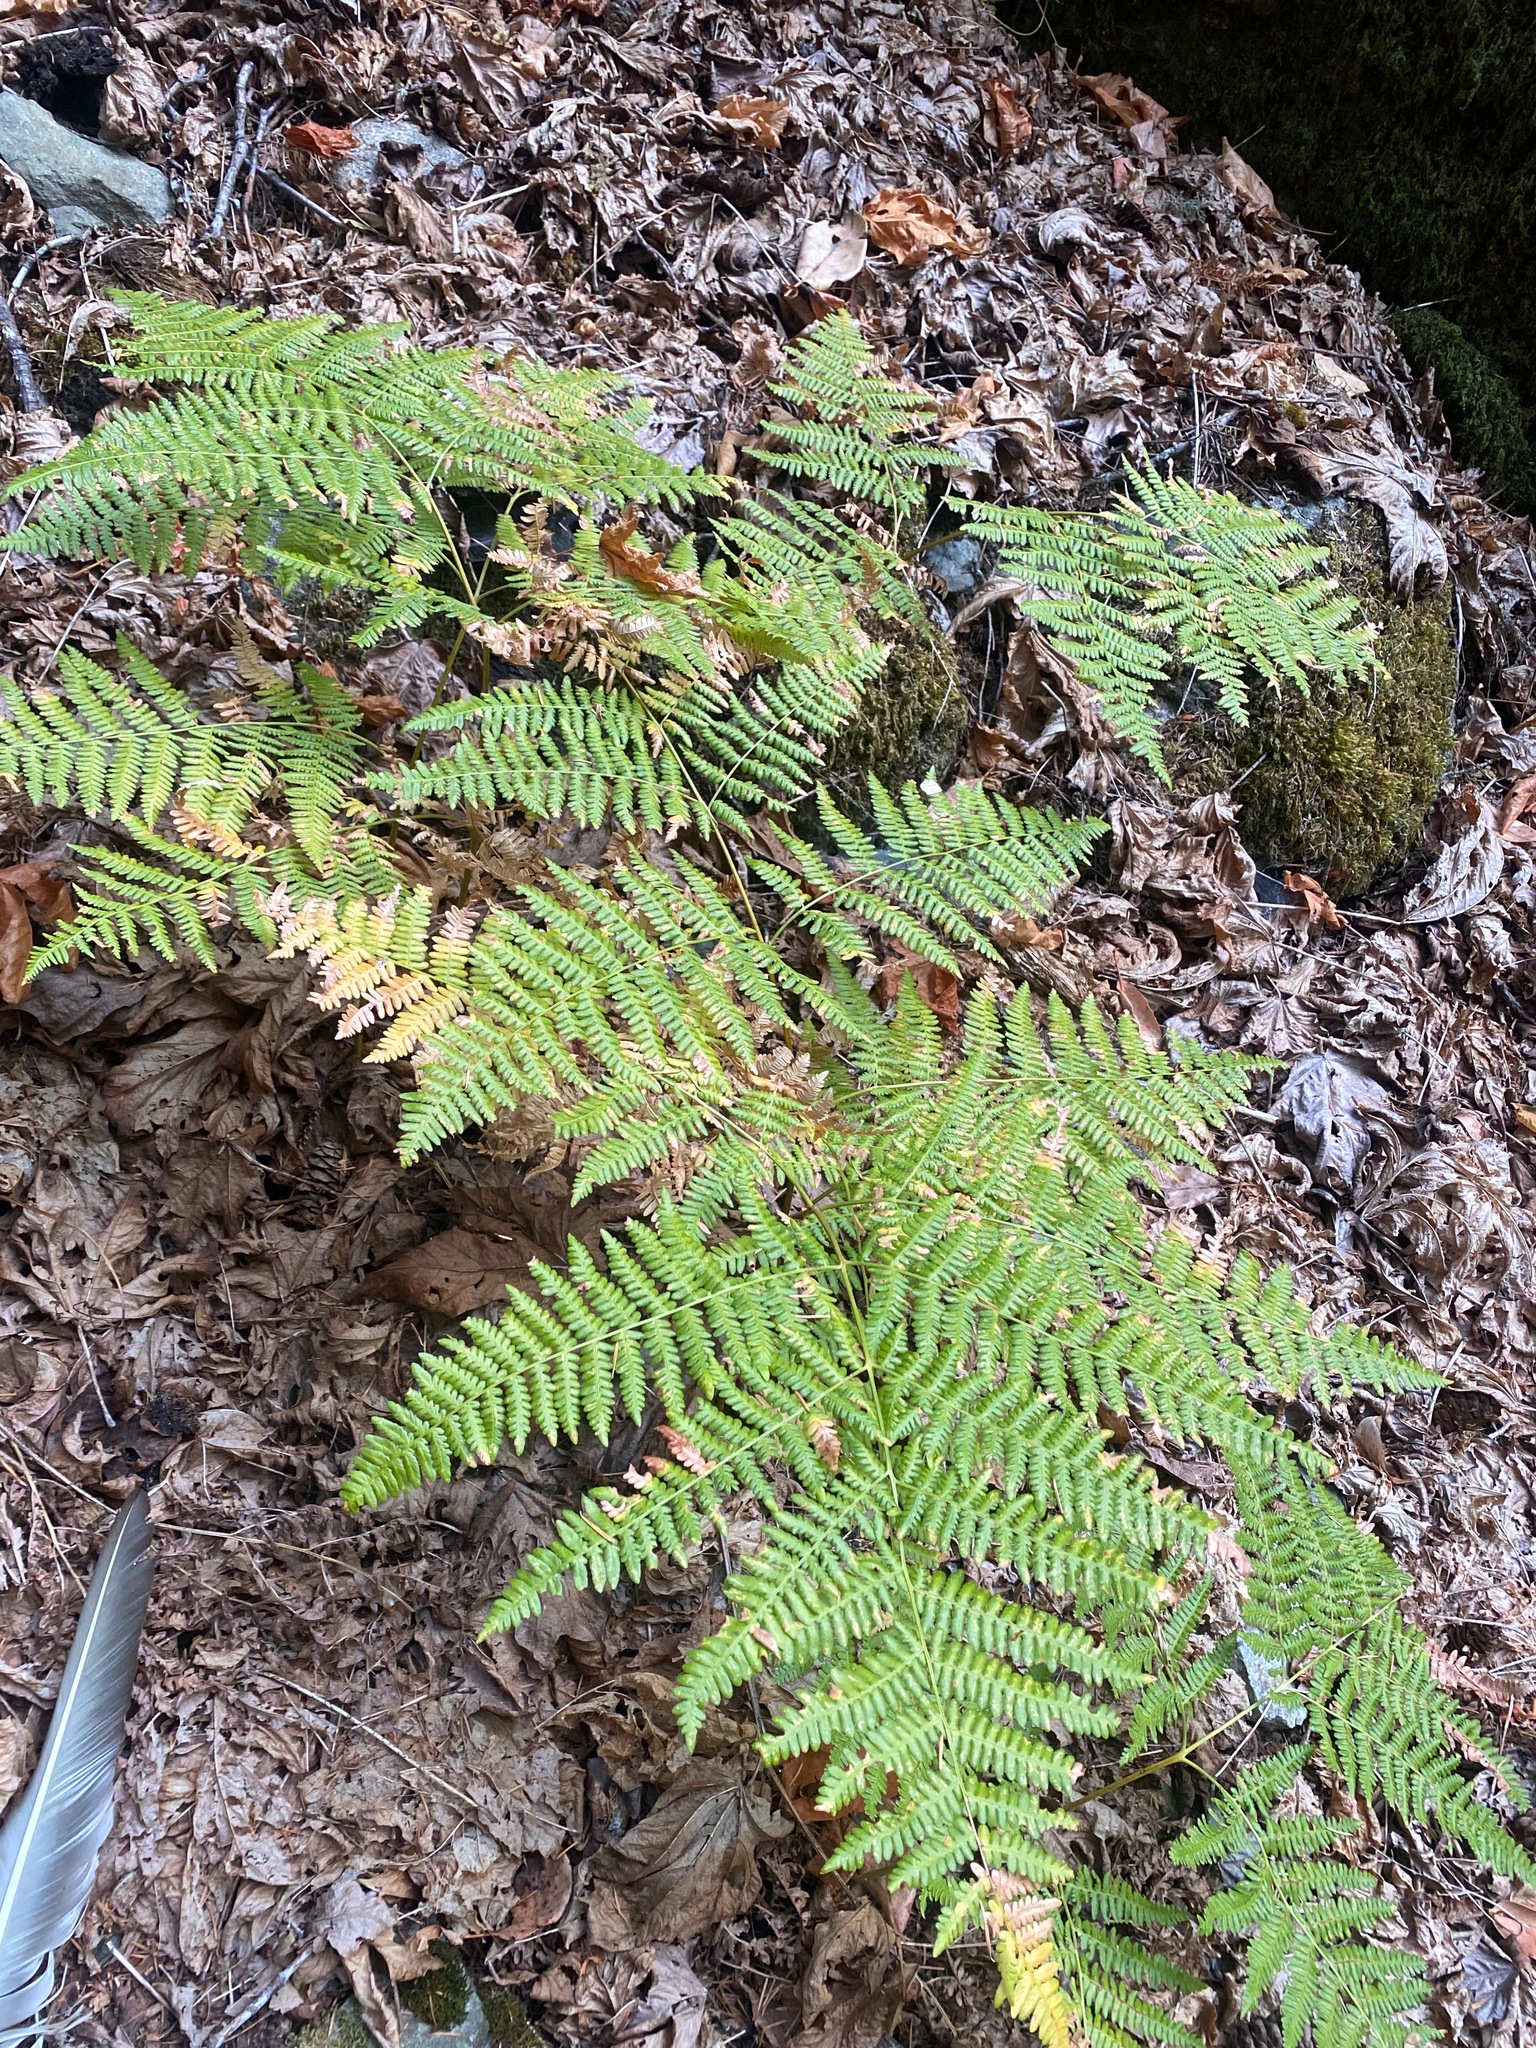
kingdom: Plantae
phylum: Tracheophyta
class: Polypodiopsida
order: Polypodiales
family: Dennstaedtiaceae
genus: Pteridium
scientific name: Pteridium aquilinum
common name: Bracken
